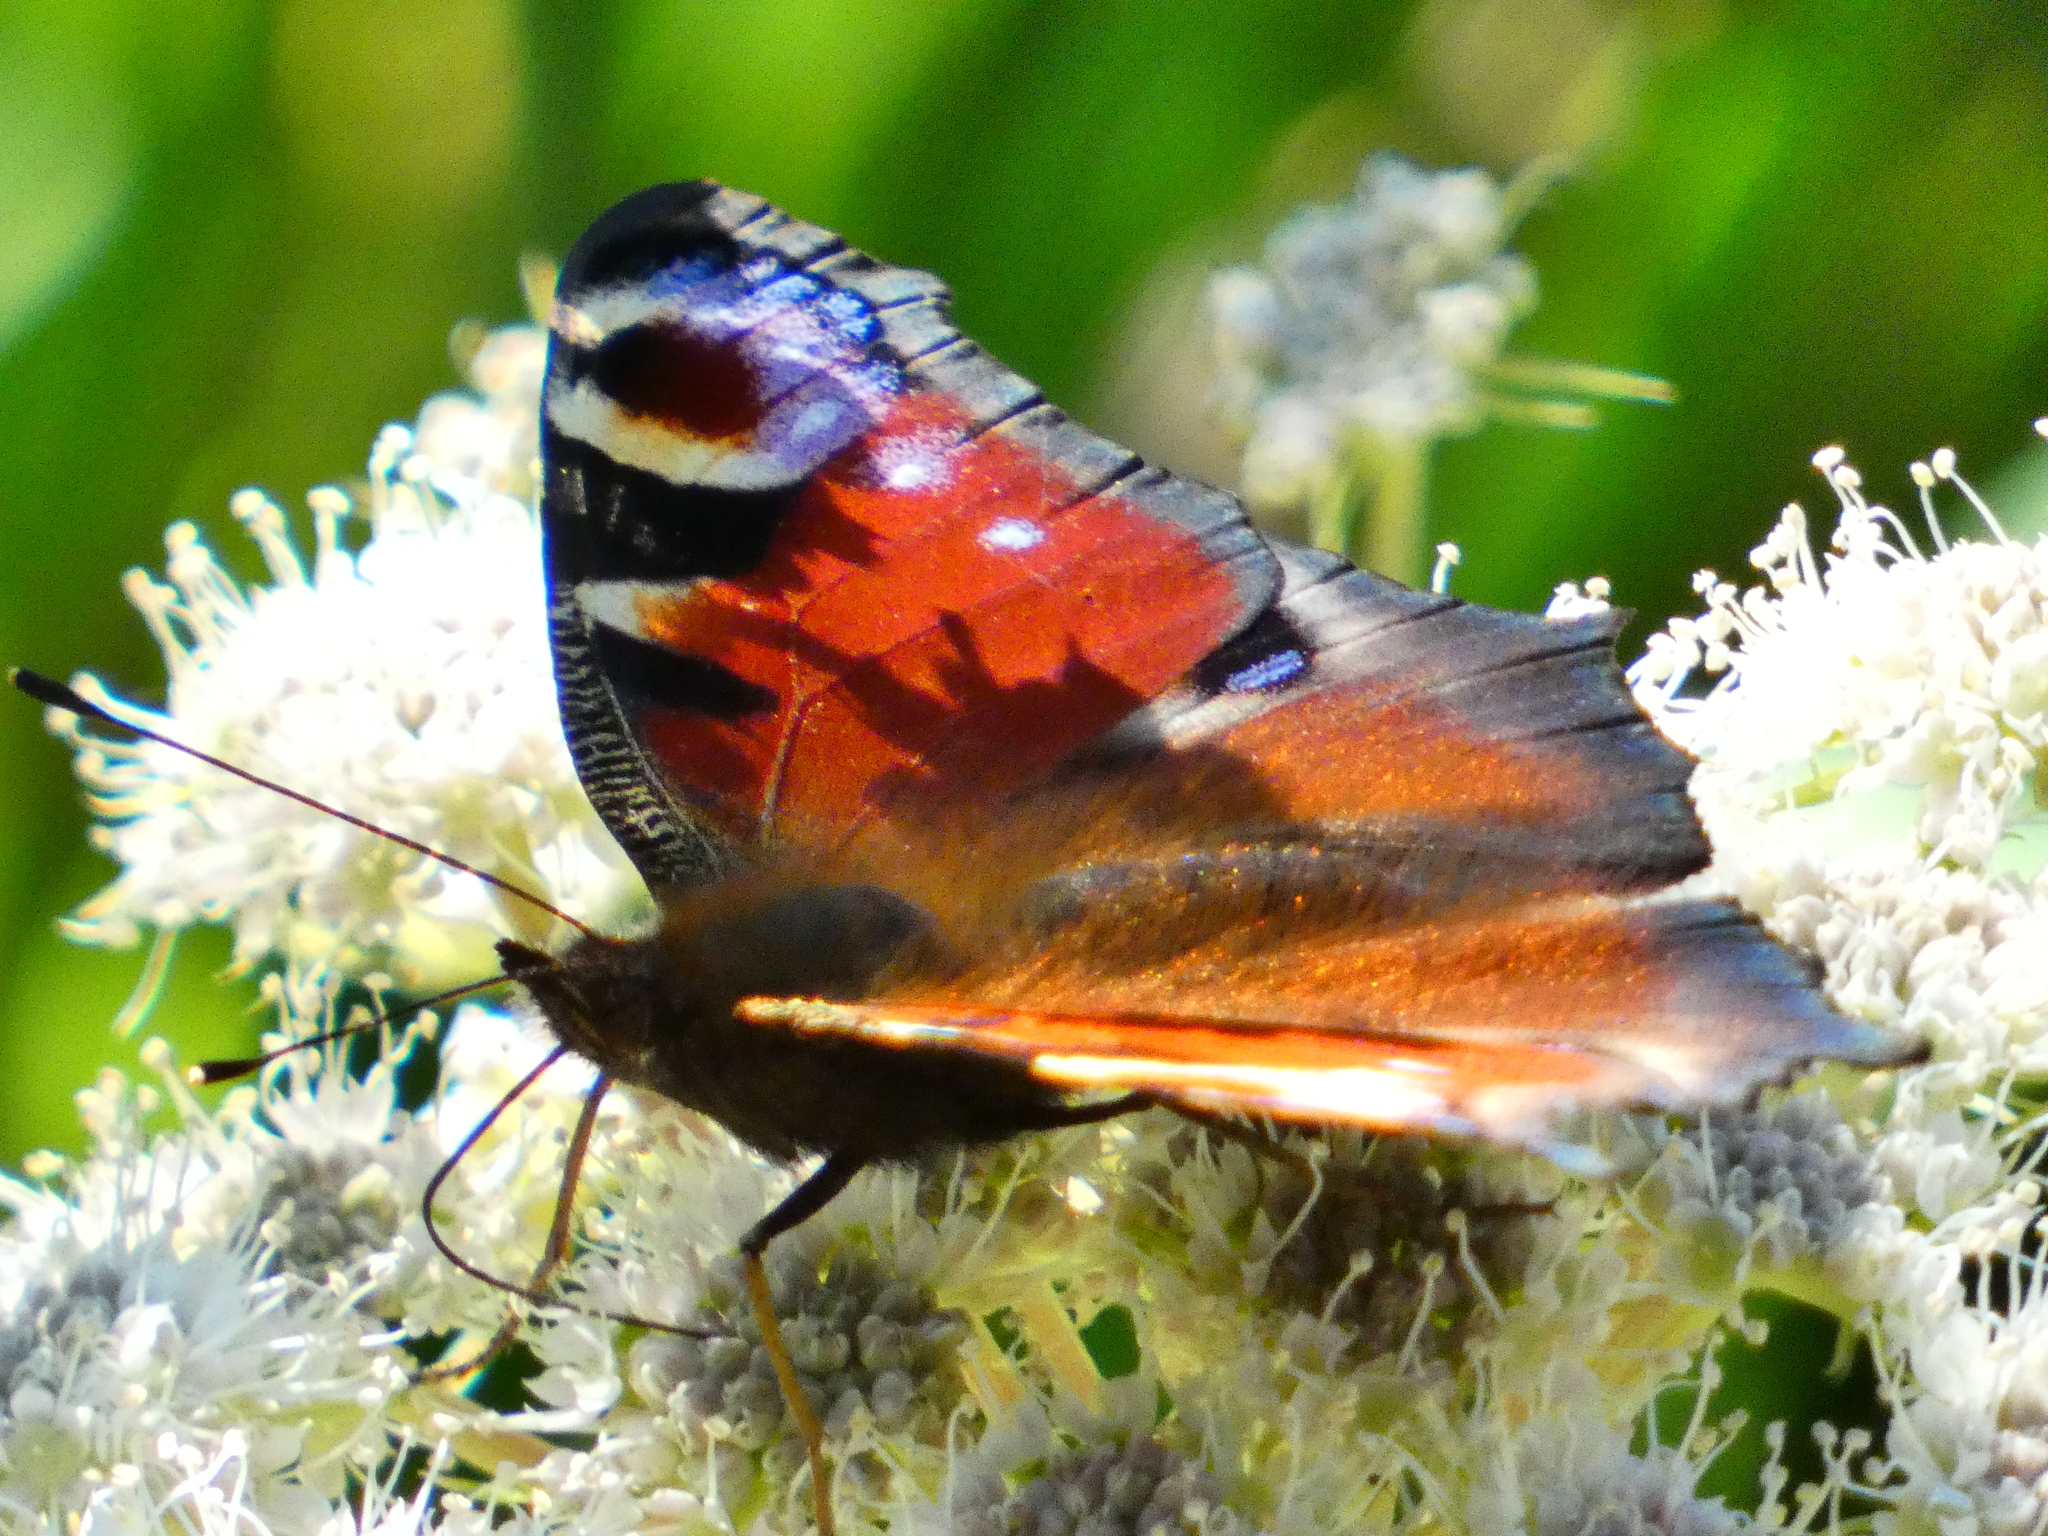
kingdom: Animalia
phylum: Arthropoda
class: Insecta
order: Lepidoptera
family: Nymphalidae
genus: Aglais
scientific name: Aglais io
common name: Peacock
